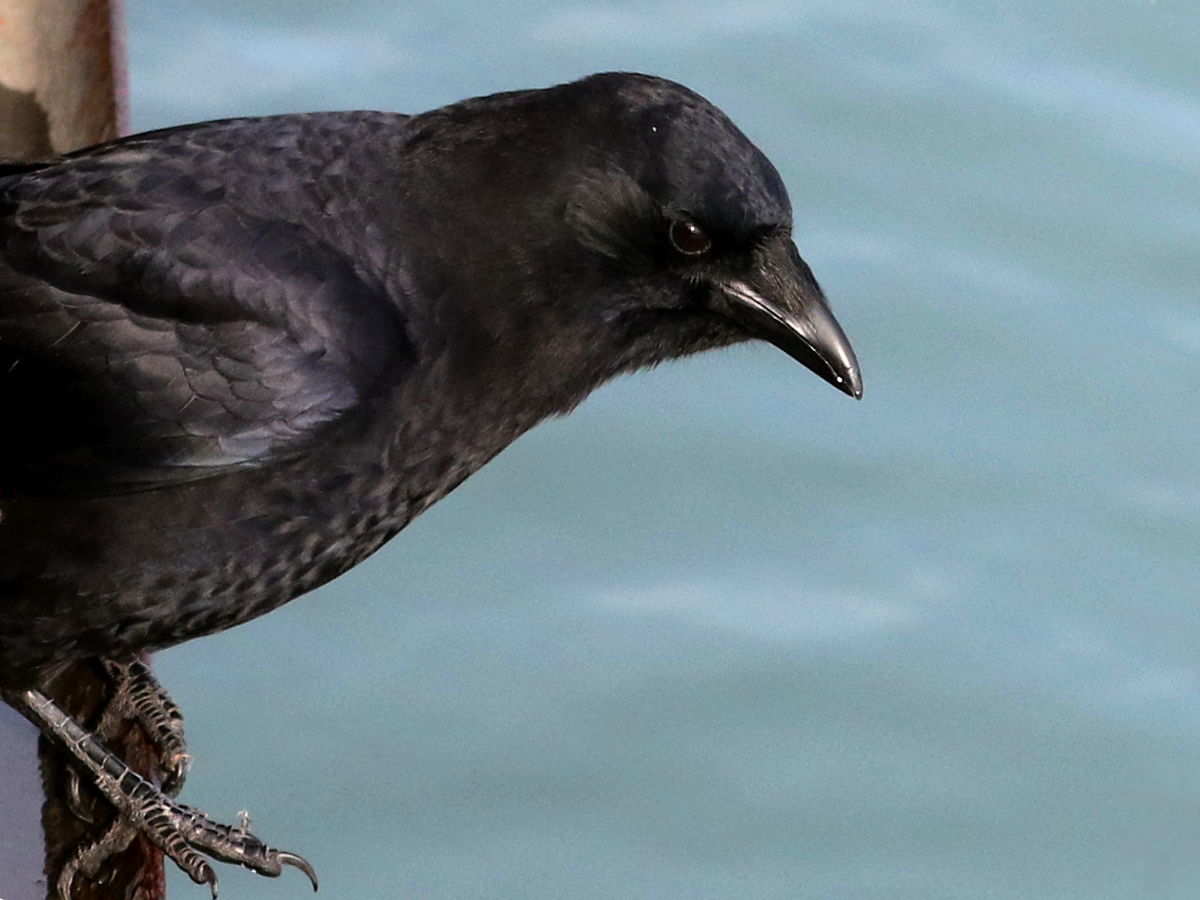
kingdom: Animalia
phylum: Chordata
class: Aves
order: Passeriformes
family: Corvidae
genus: Corvus
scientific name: Corvus brachyrhynchos
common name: American crow
